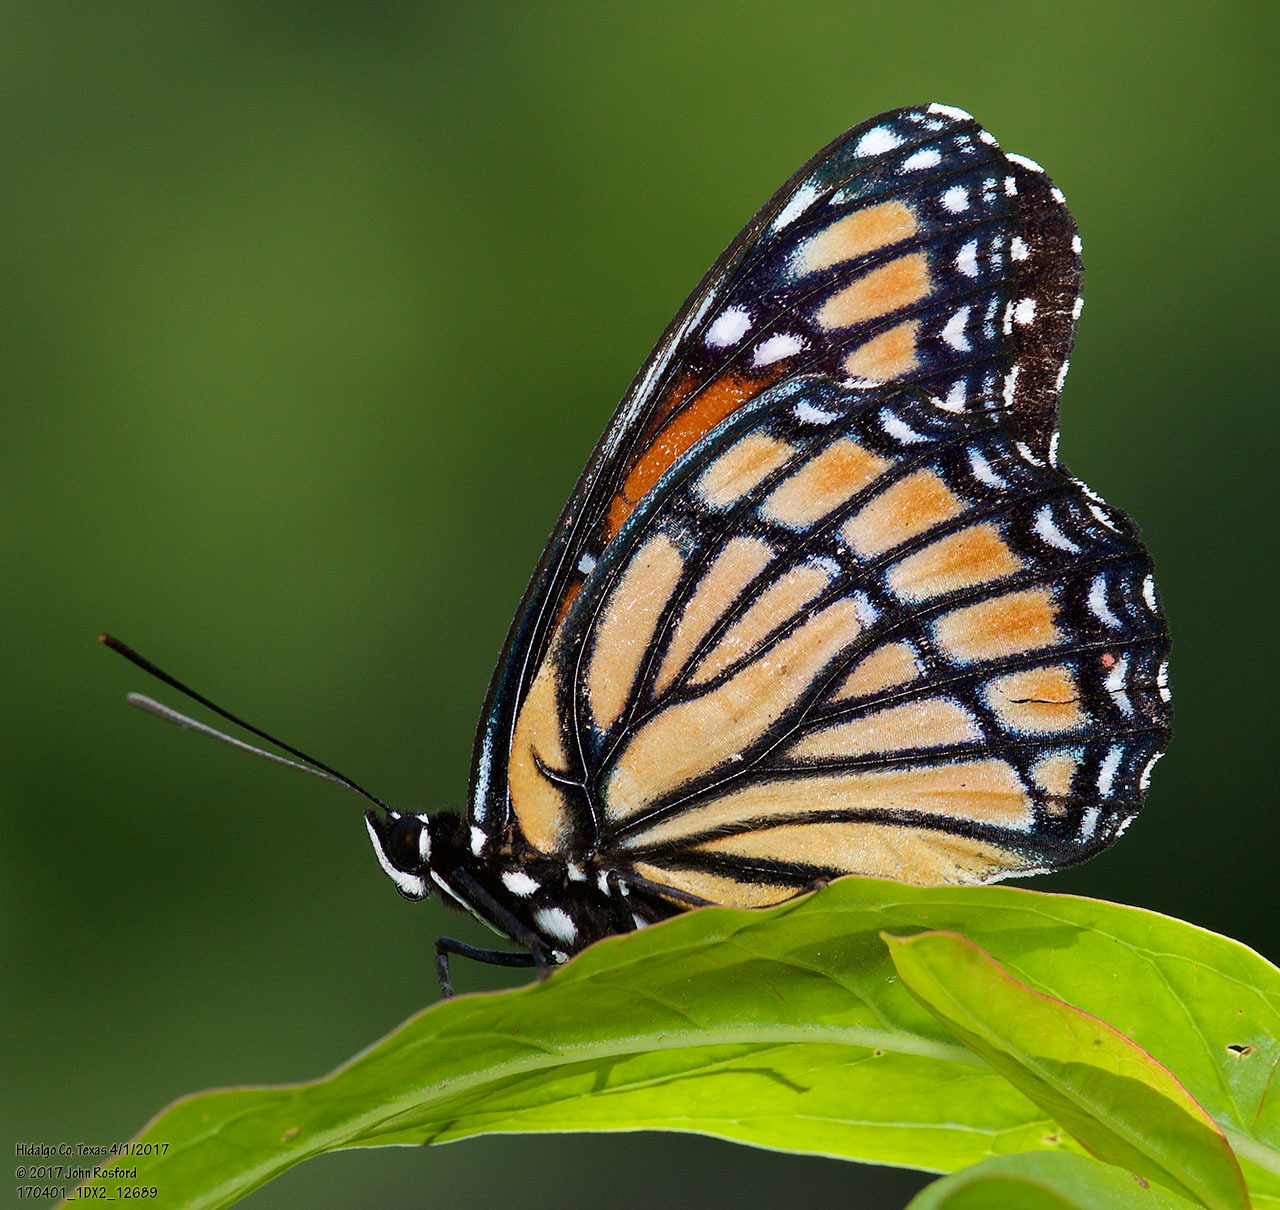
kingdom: Animalia
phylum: Arthropoda
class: Insecta
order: Lepidoptera
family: Nymphalidae
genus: Limenitis
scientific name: Limenitis archippus
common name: Viceroy
